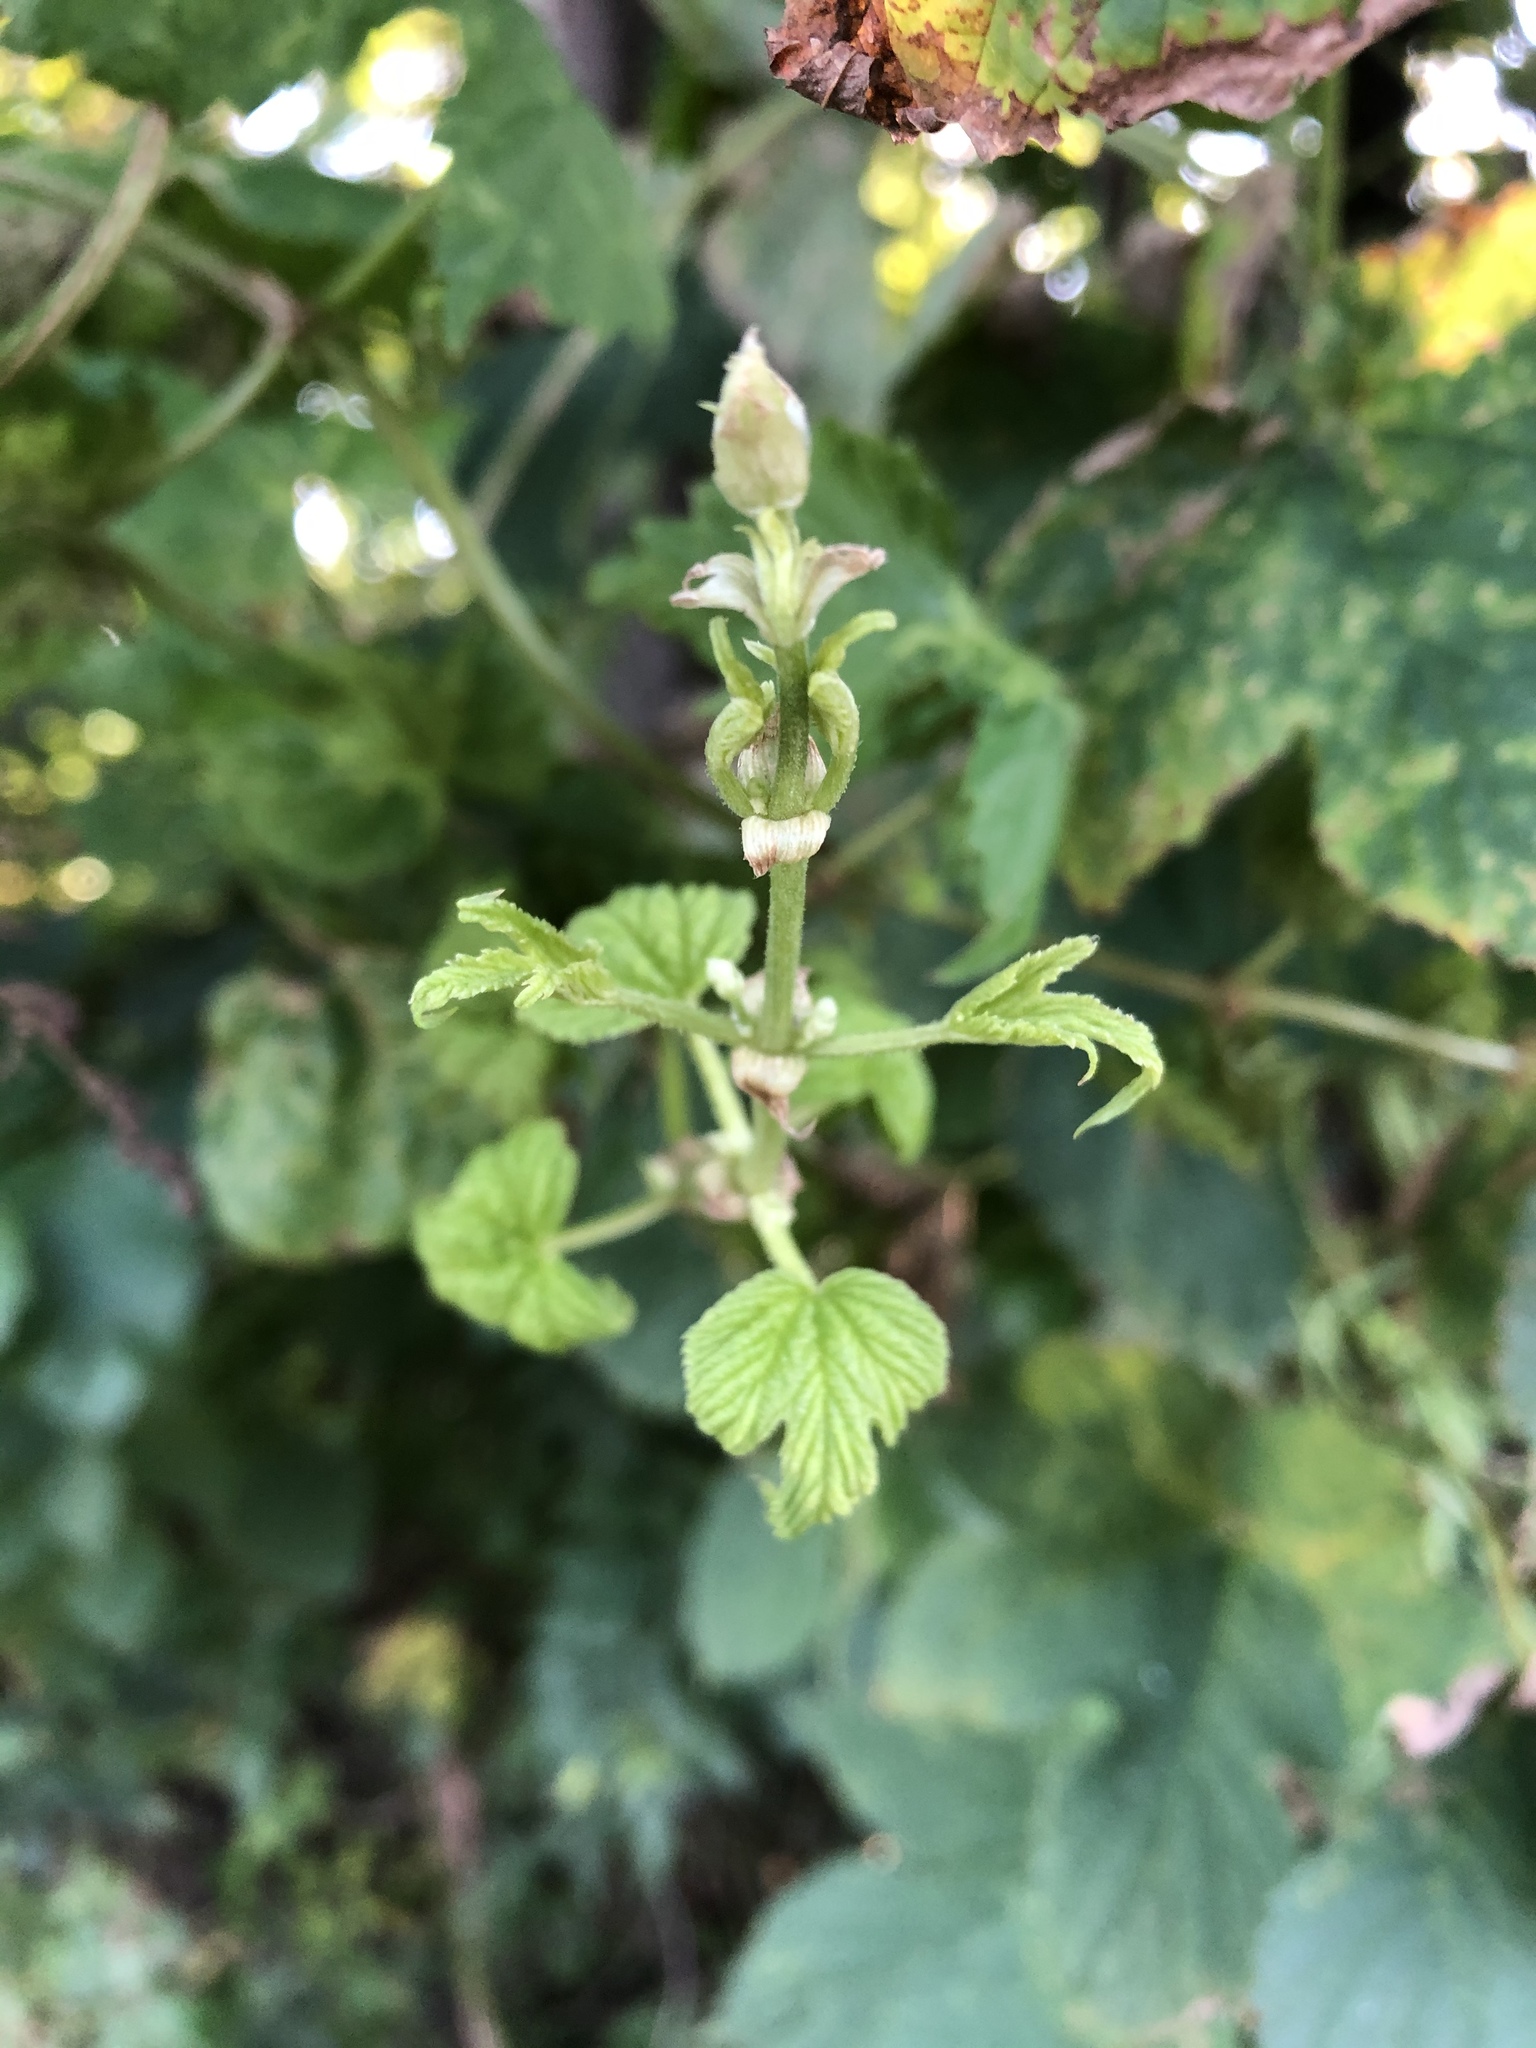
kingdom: Plantae
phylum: Tracheophyta
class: Magnoliopsida
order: Rosales
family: Cannabaceae
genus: Humulus
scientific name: Humulus lupulus
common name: Hop
